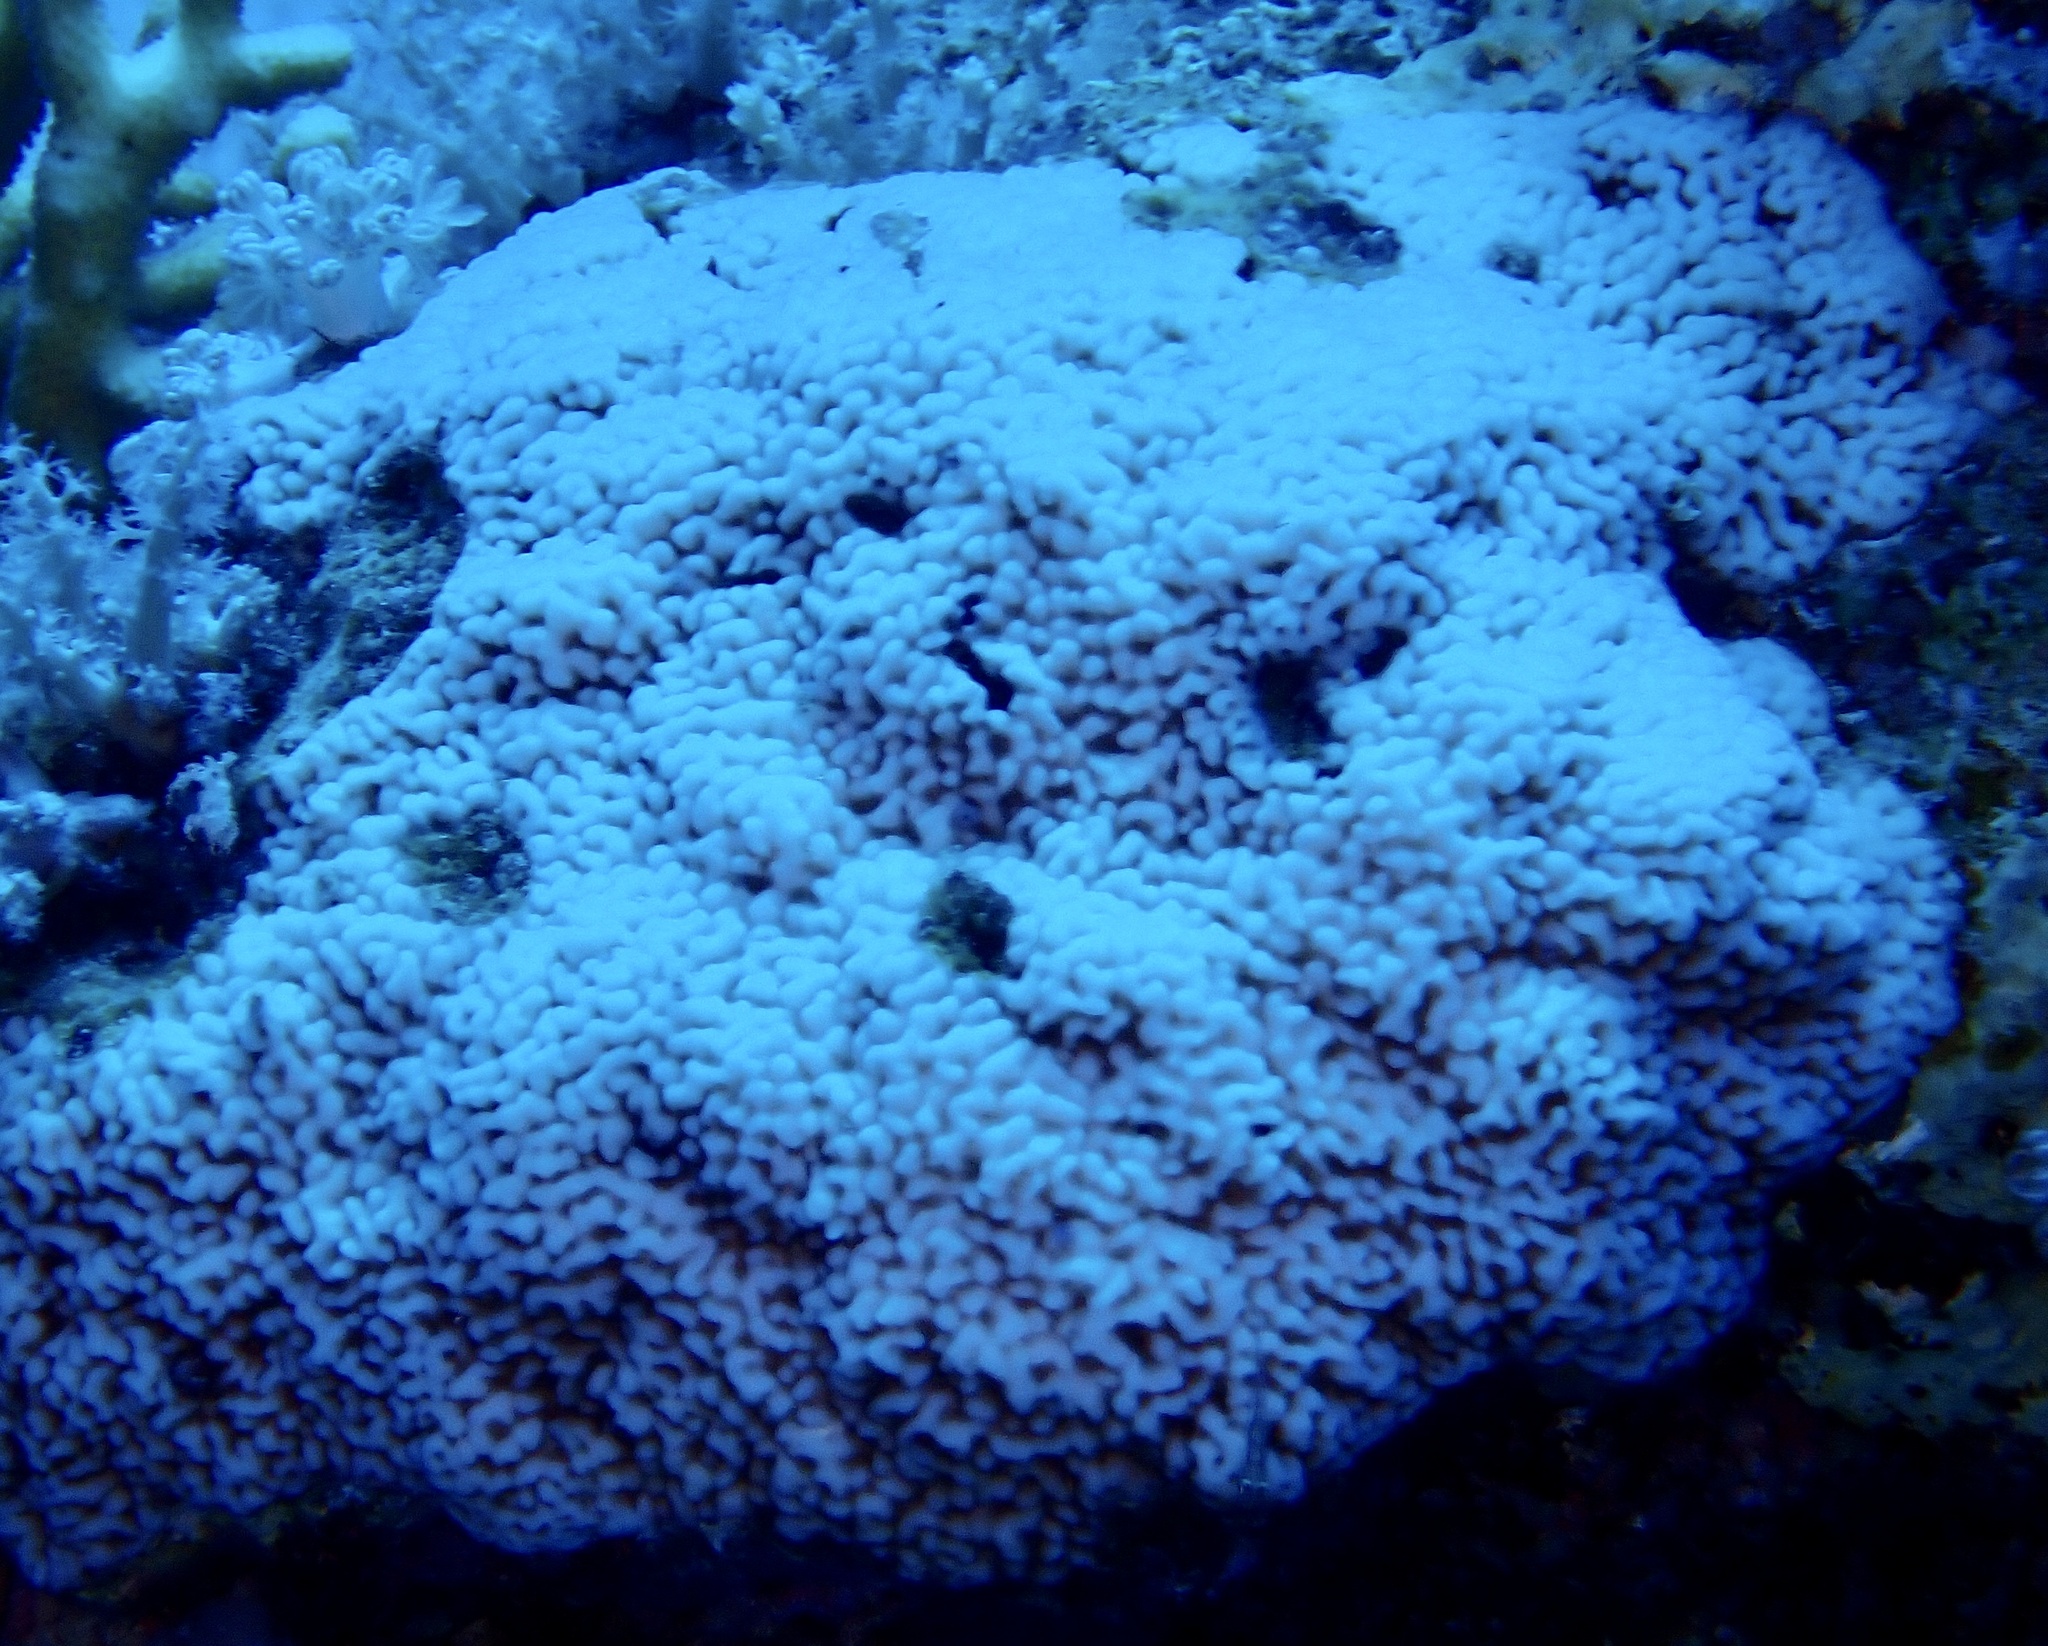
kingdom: Animalia
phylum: Cnidaria
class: Anthozoa
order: Scleractinia
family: Acroporidae
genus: Montipora
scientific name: Montipora
